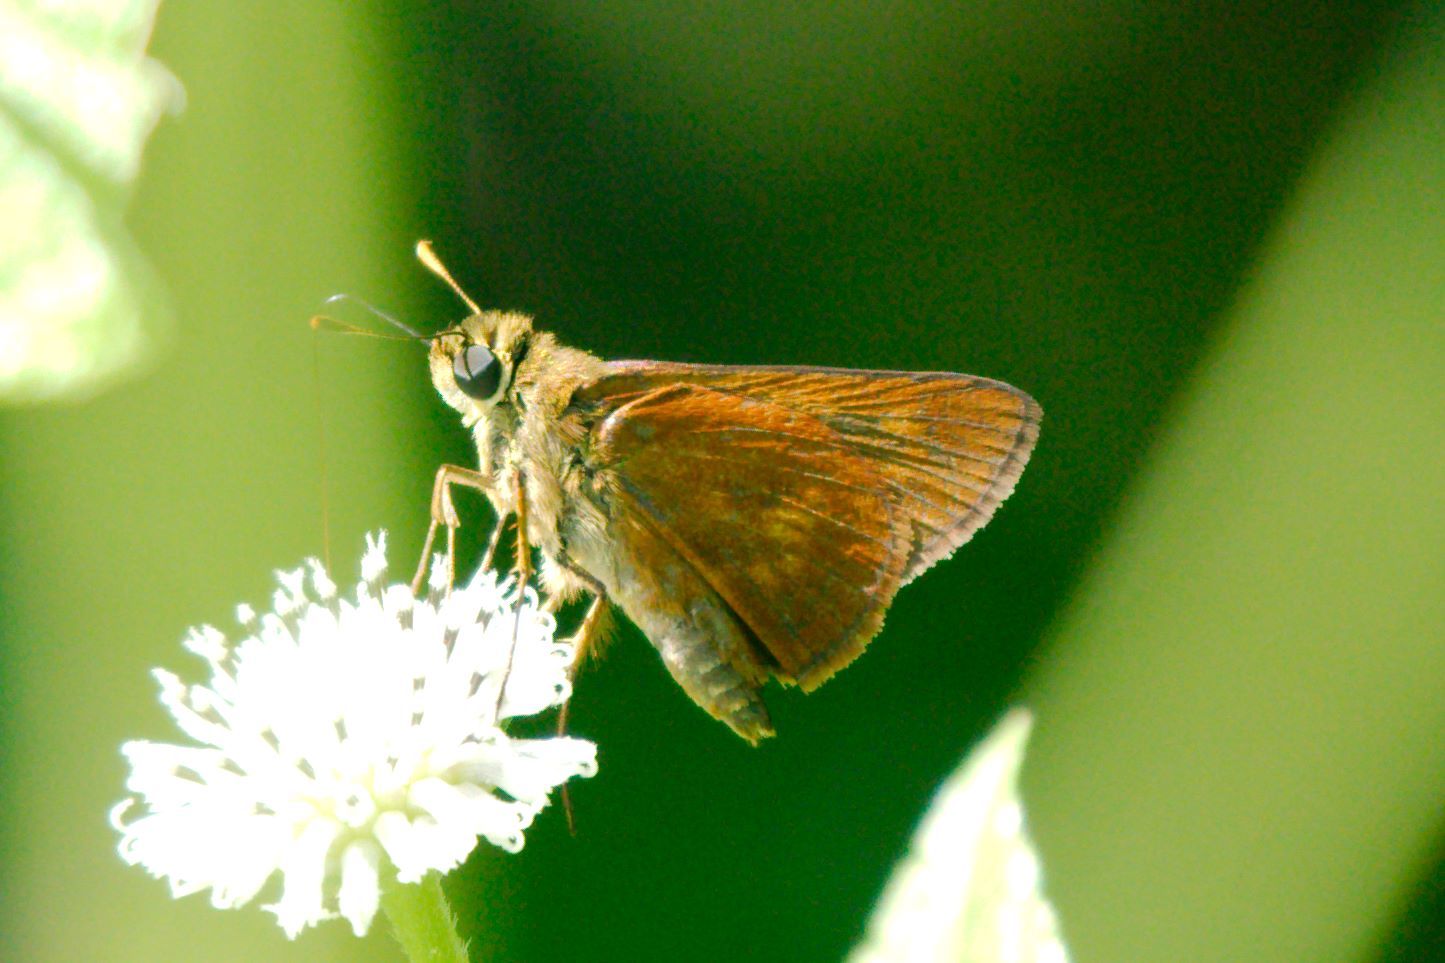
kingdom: Animalia
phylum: Arthropoda
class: Insecta
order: Lepidoptera
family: Hesperiidae
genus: Polites
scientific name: Polites otho
